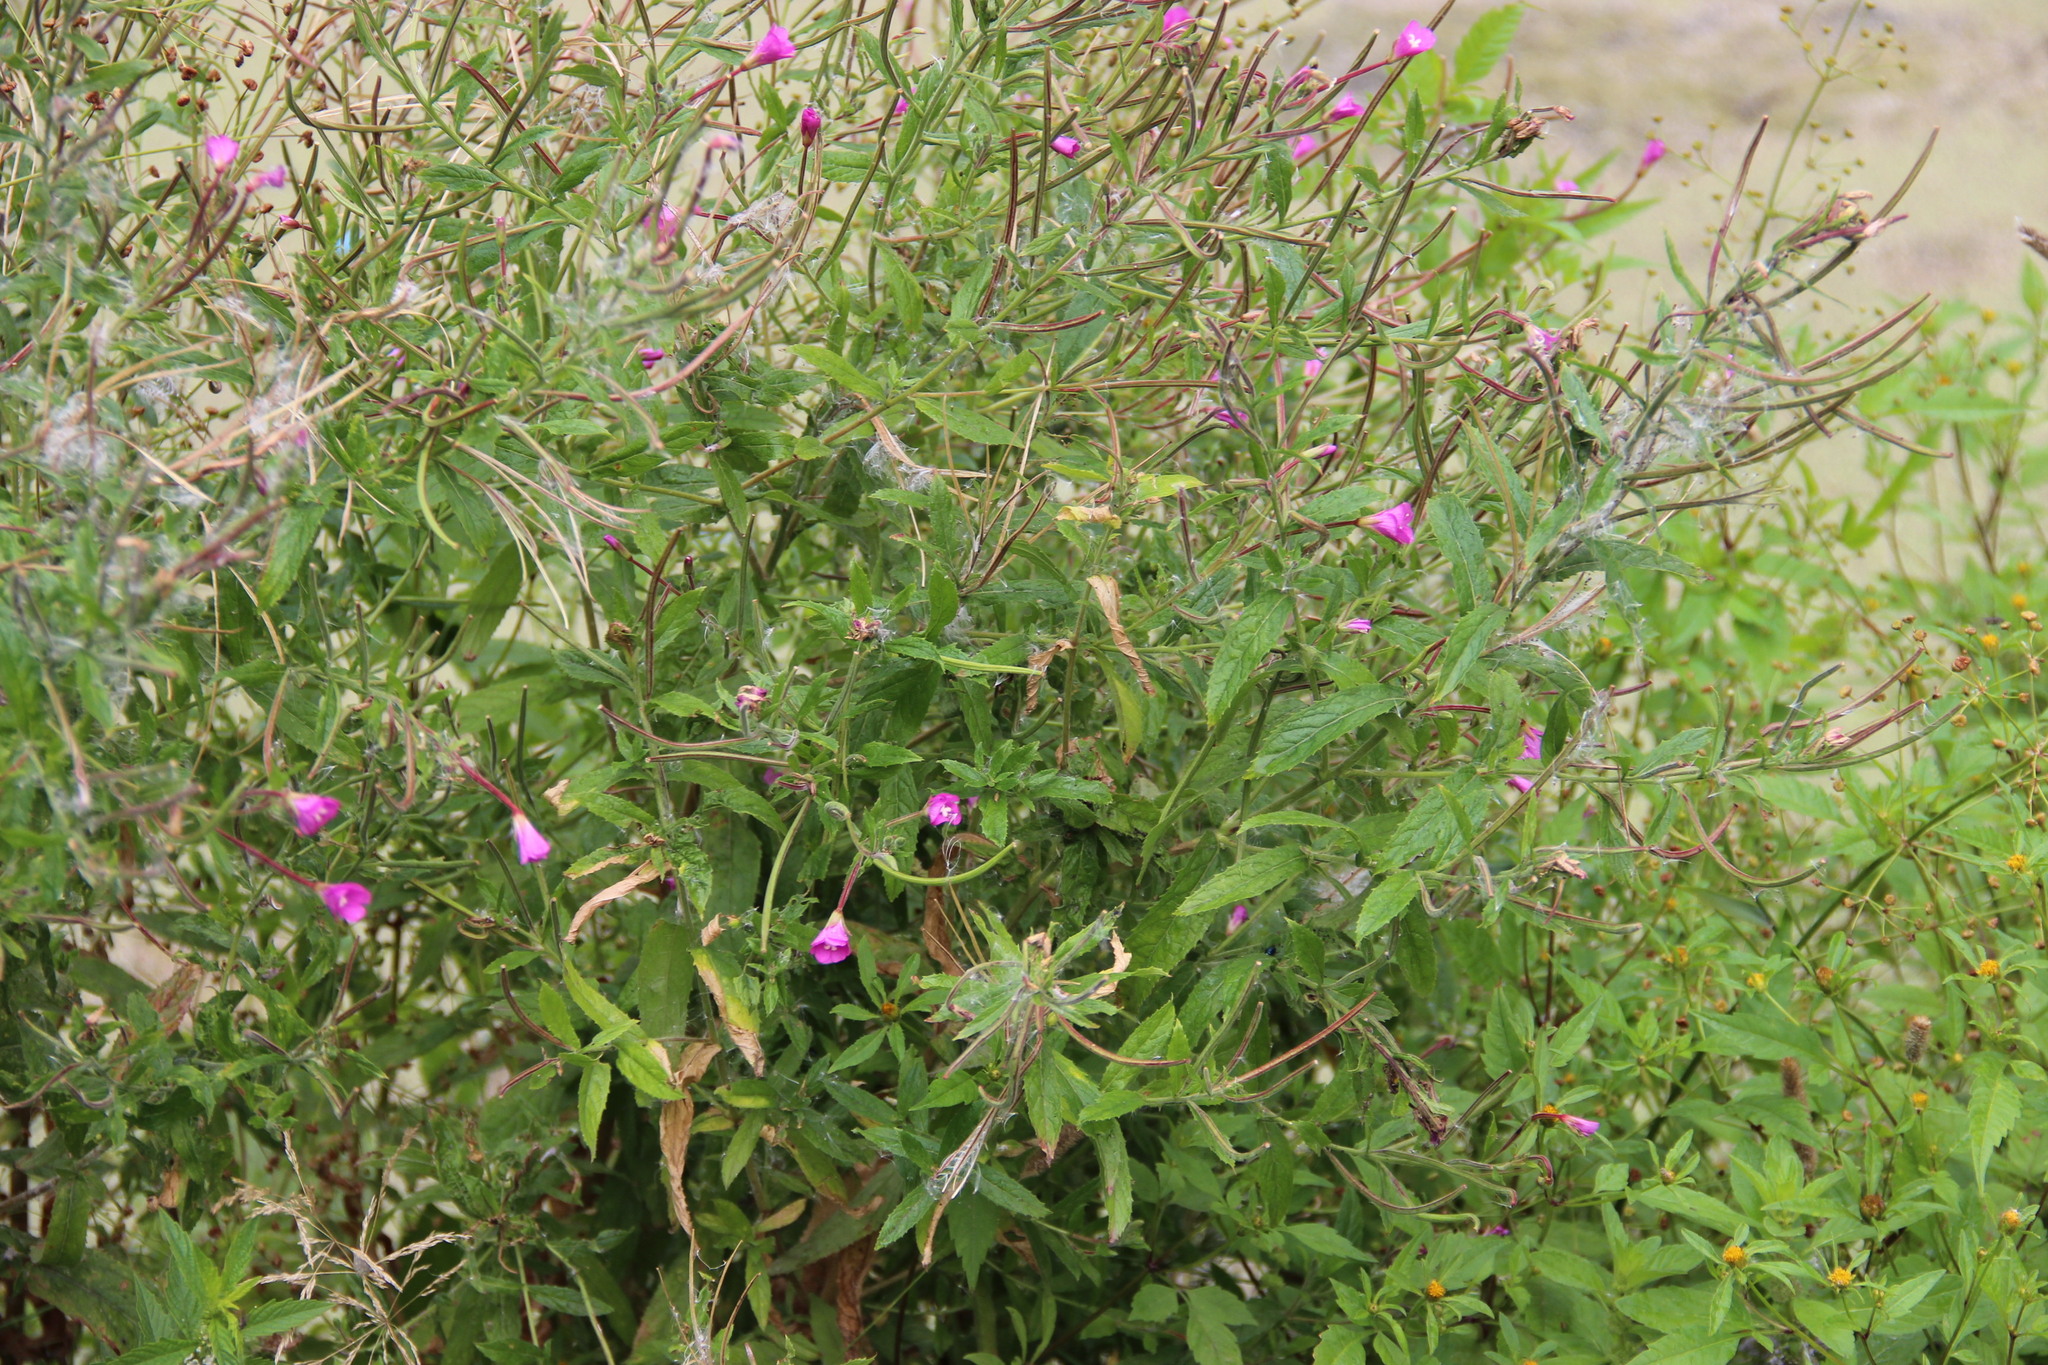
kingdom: Plantae
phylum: Tracheophyta
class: Magnoliopsida
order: Myrtales
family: Onagraceae
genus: Epilobium
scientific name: Epilobium hirsutum
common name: Great willowherb
